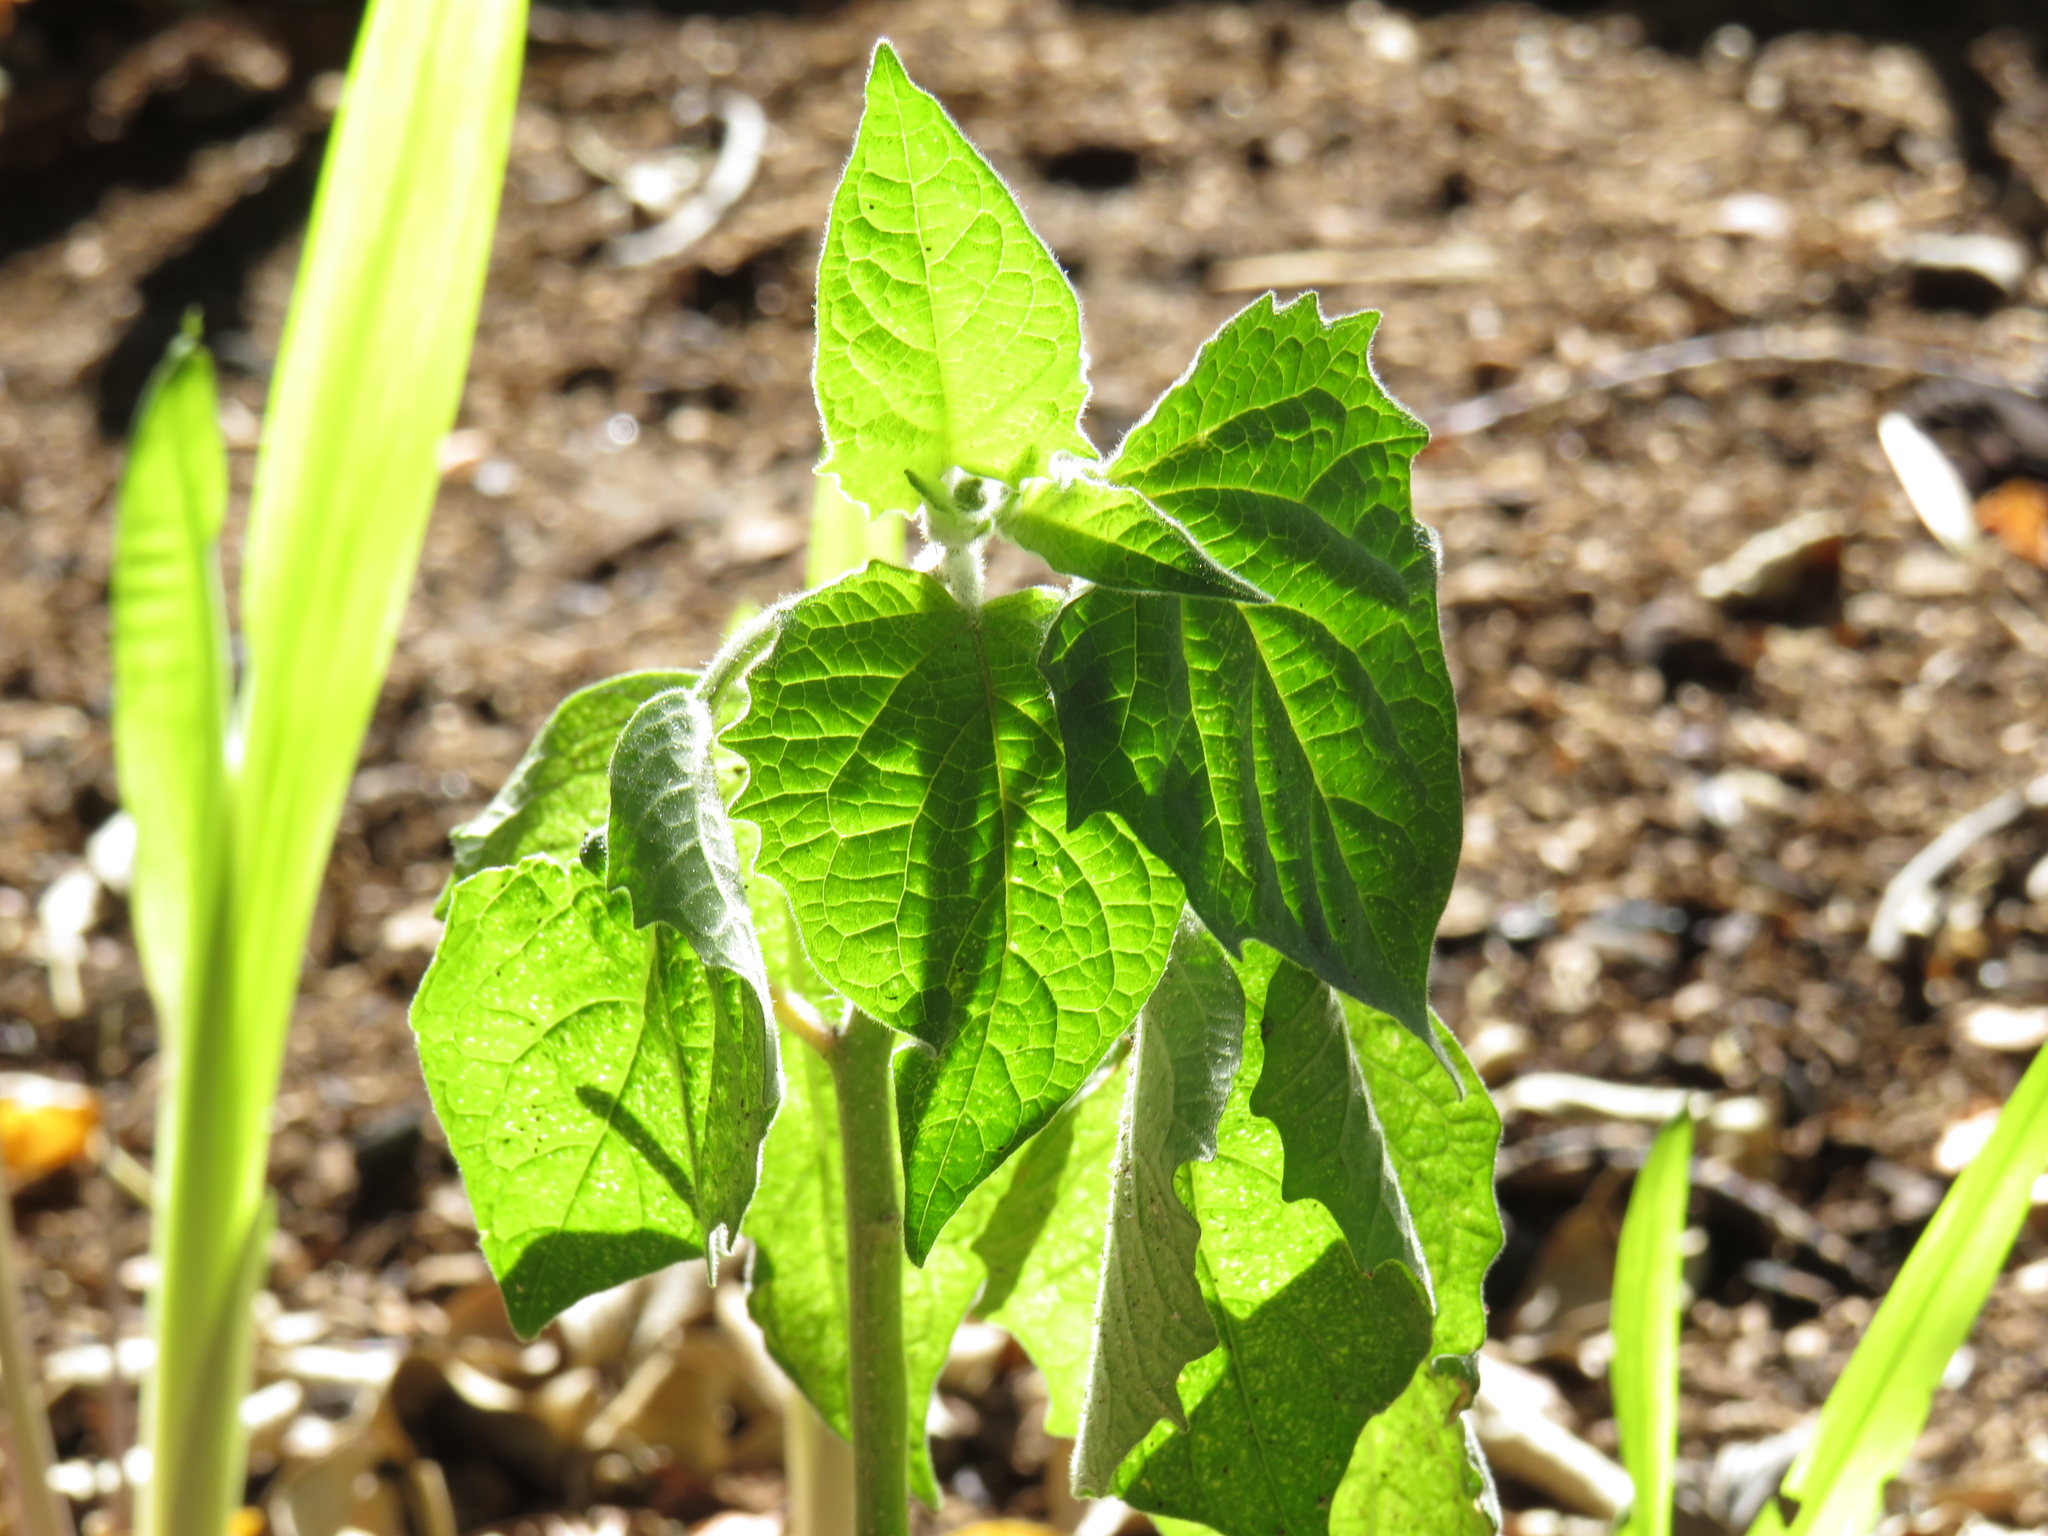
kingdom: Plantae
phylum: Tracheophyta
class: Magnoliopsida
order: Solanales
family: Solanaceae
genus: Physalis
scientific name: Physalis peruviana
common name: Cape-gooseberry
